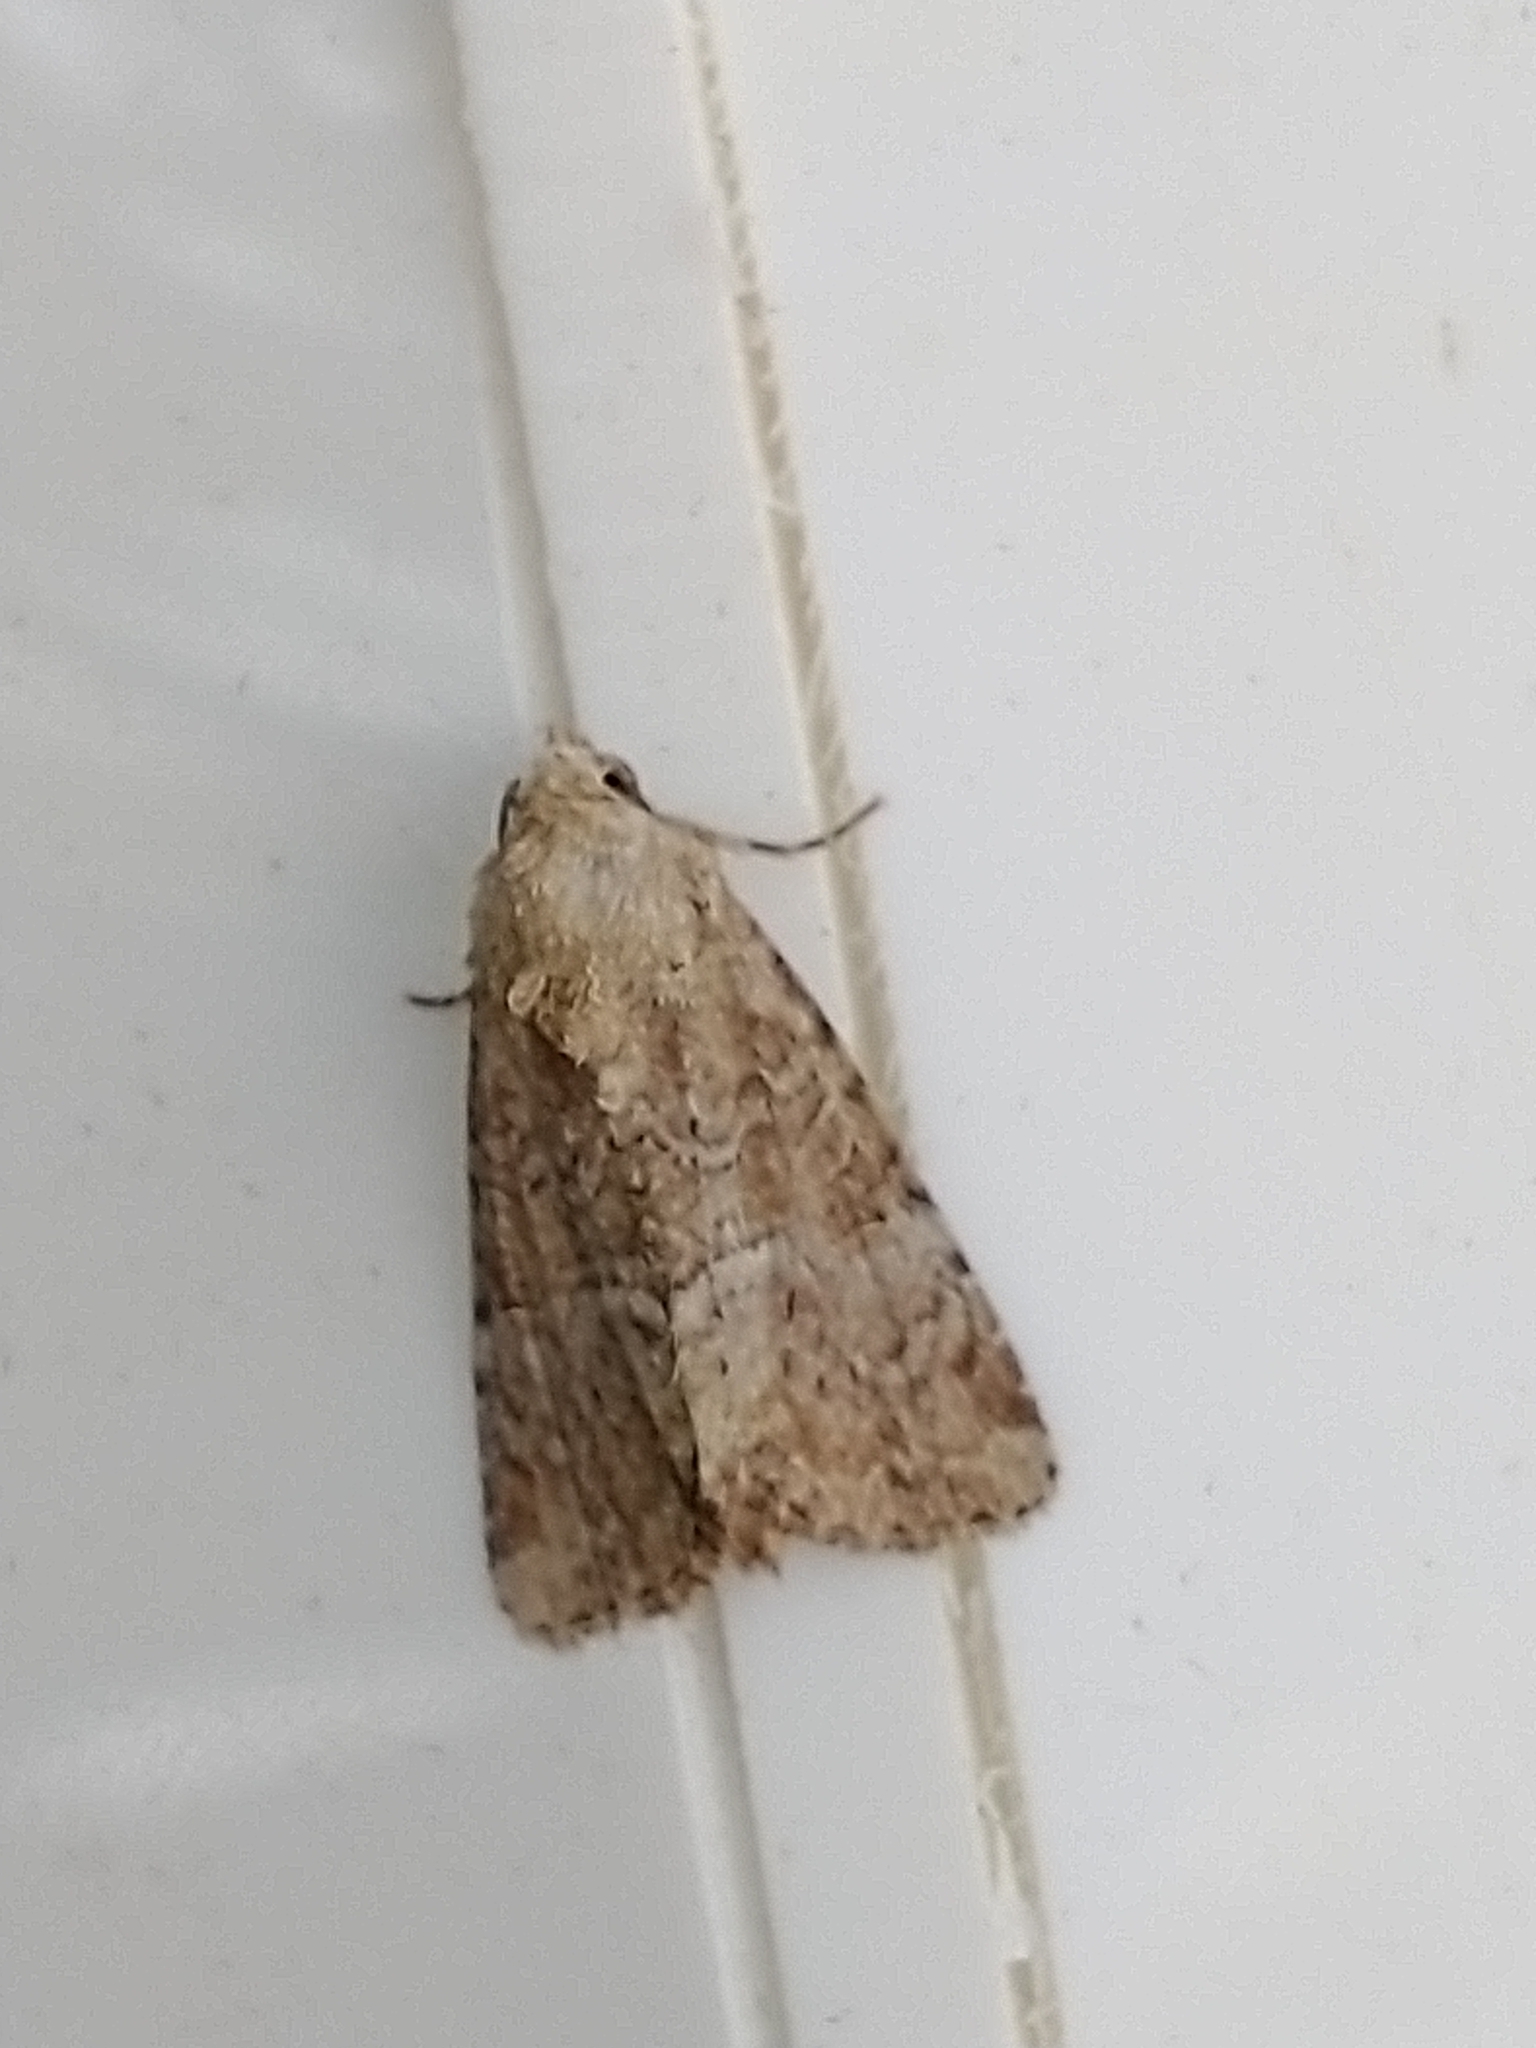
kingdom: Animalia
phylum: Arthropoda
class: Insecta
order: Lepidoptera
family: Noctuidae
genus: Mesoligia
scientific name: Mesoligia furuncula
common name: Cloaked minor
